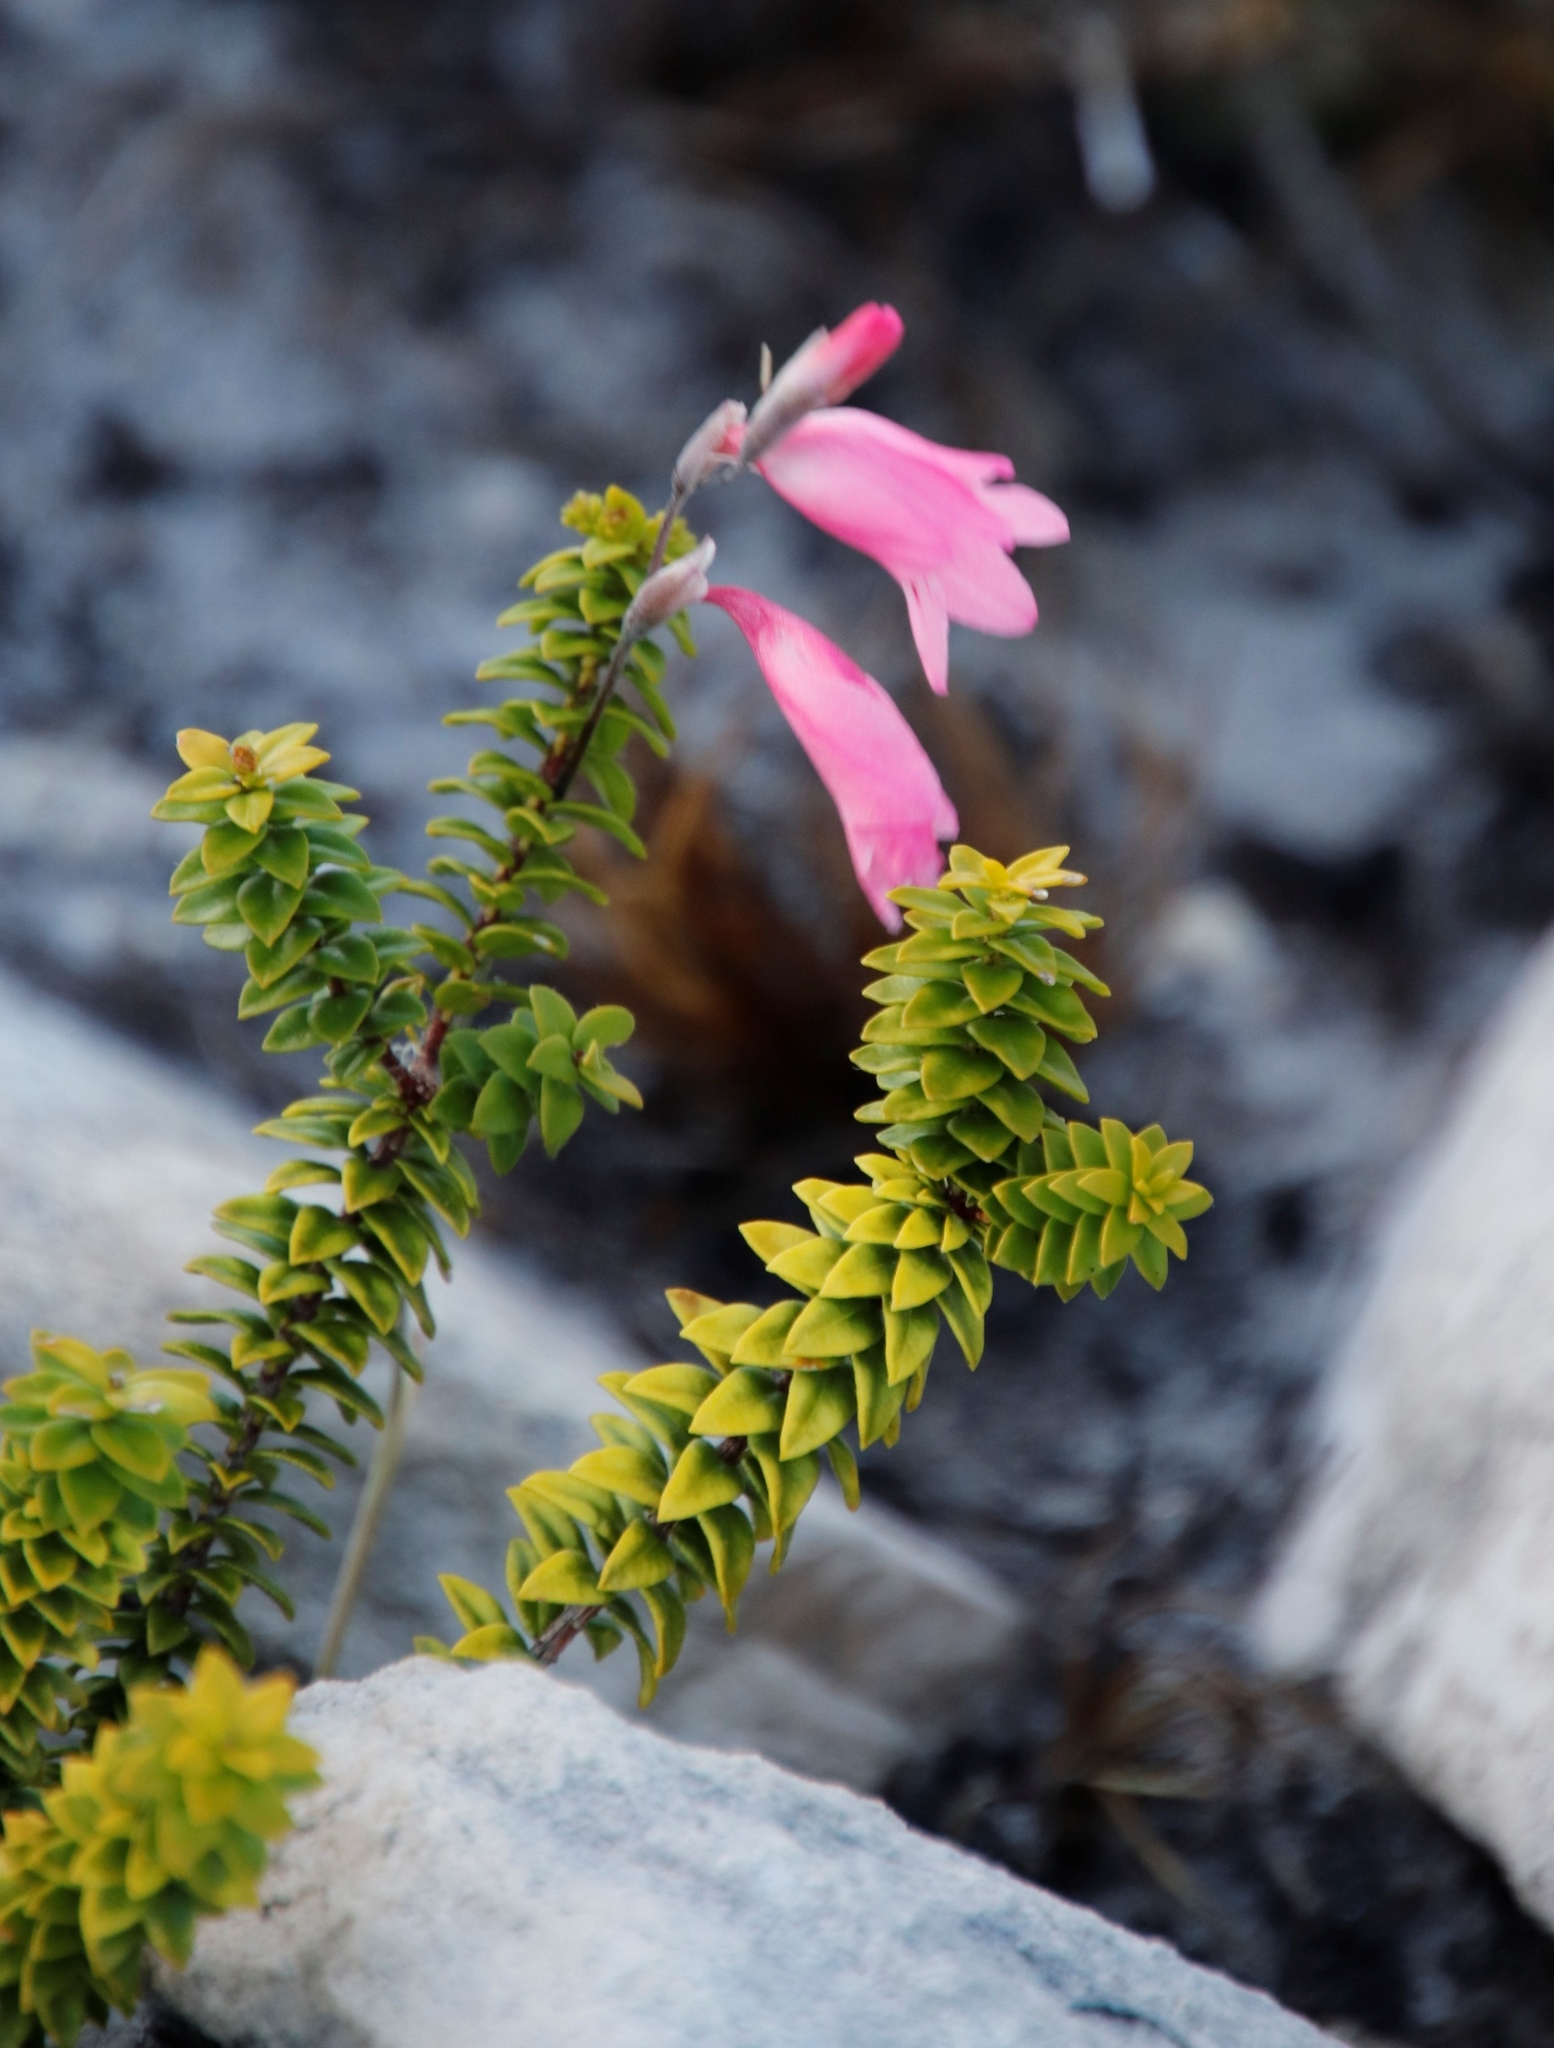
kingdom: Plantae
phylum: Tracheophyta
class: Liliopsida
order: Asparagales
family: Iridaceae
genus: Gladiolus
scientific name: Gladiolus brevifolius
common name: March pypie
